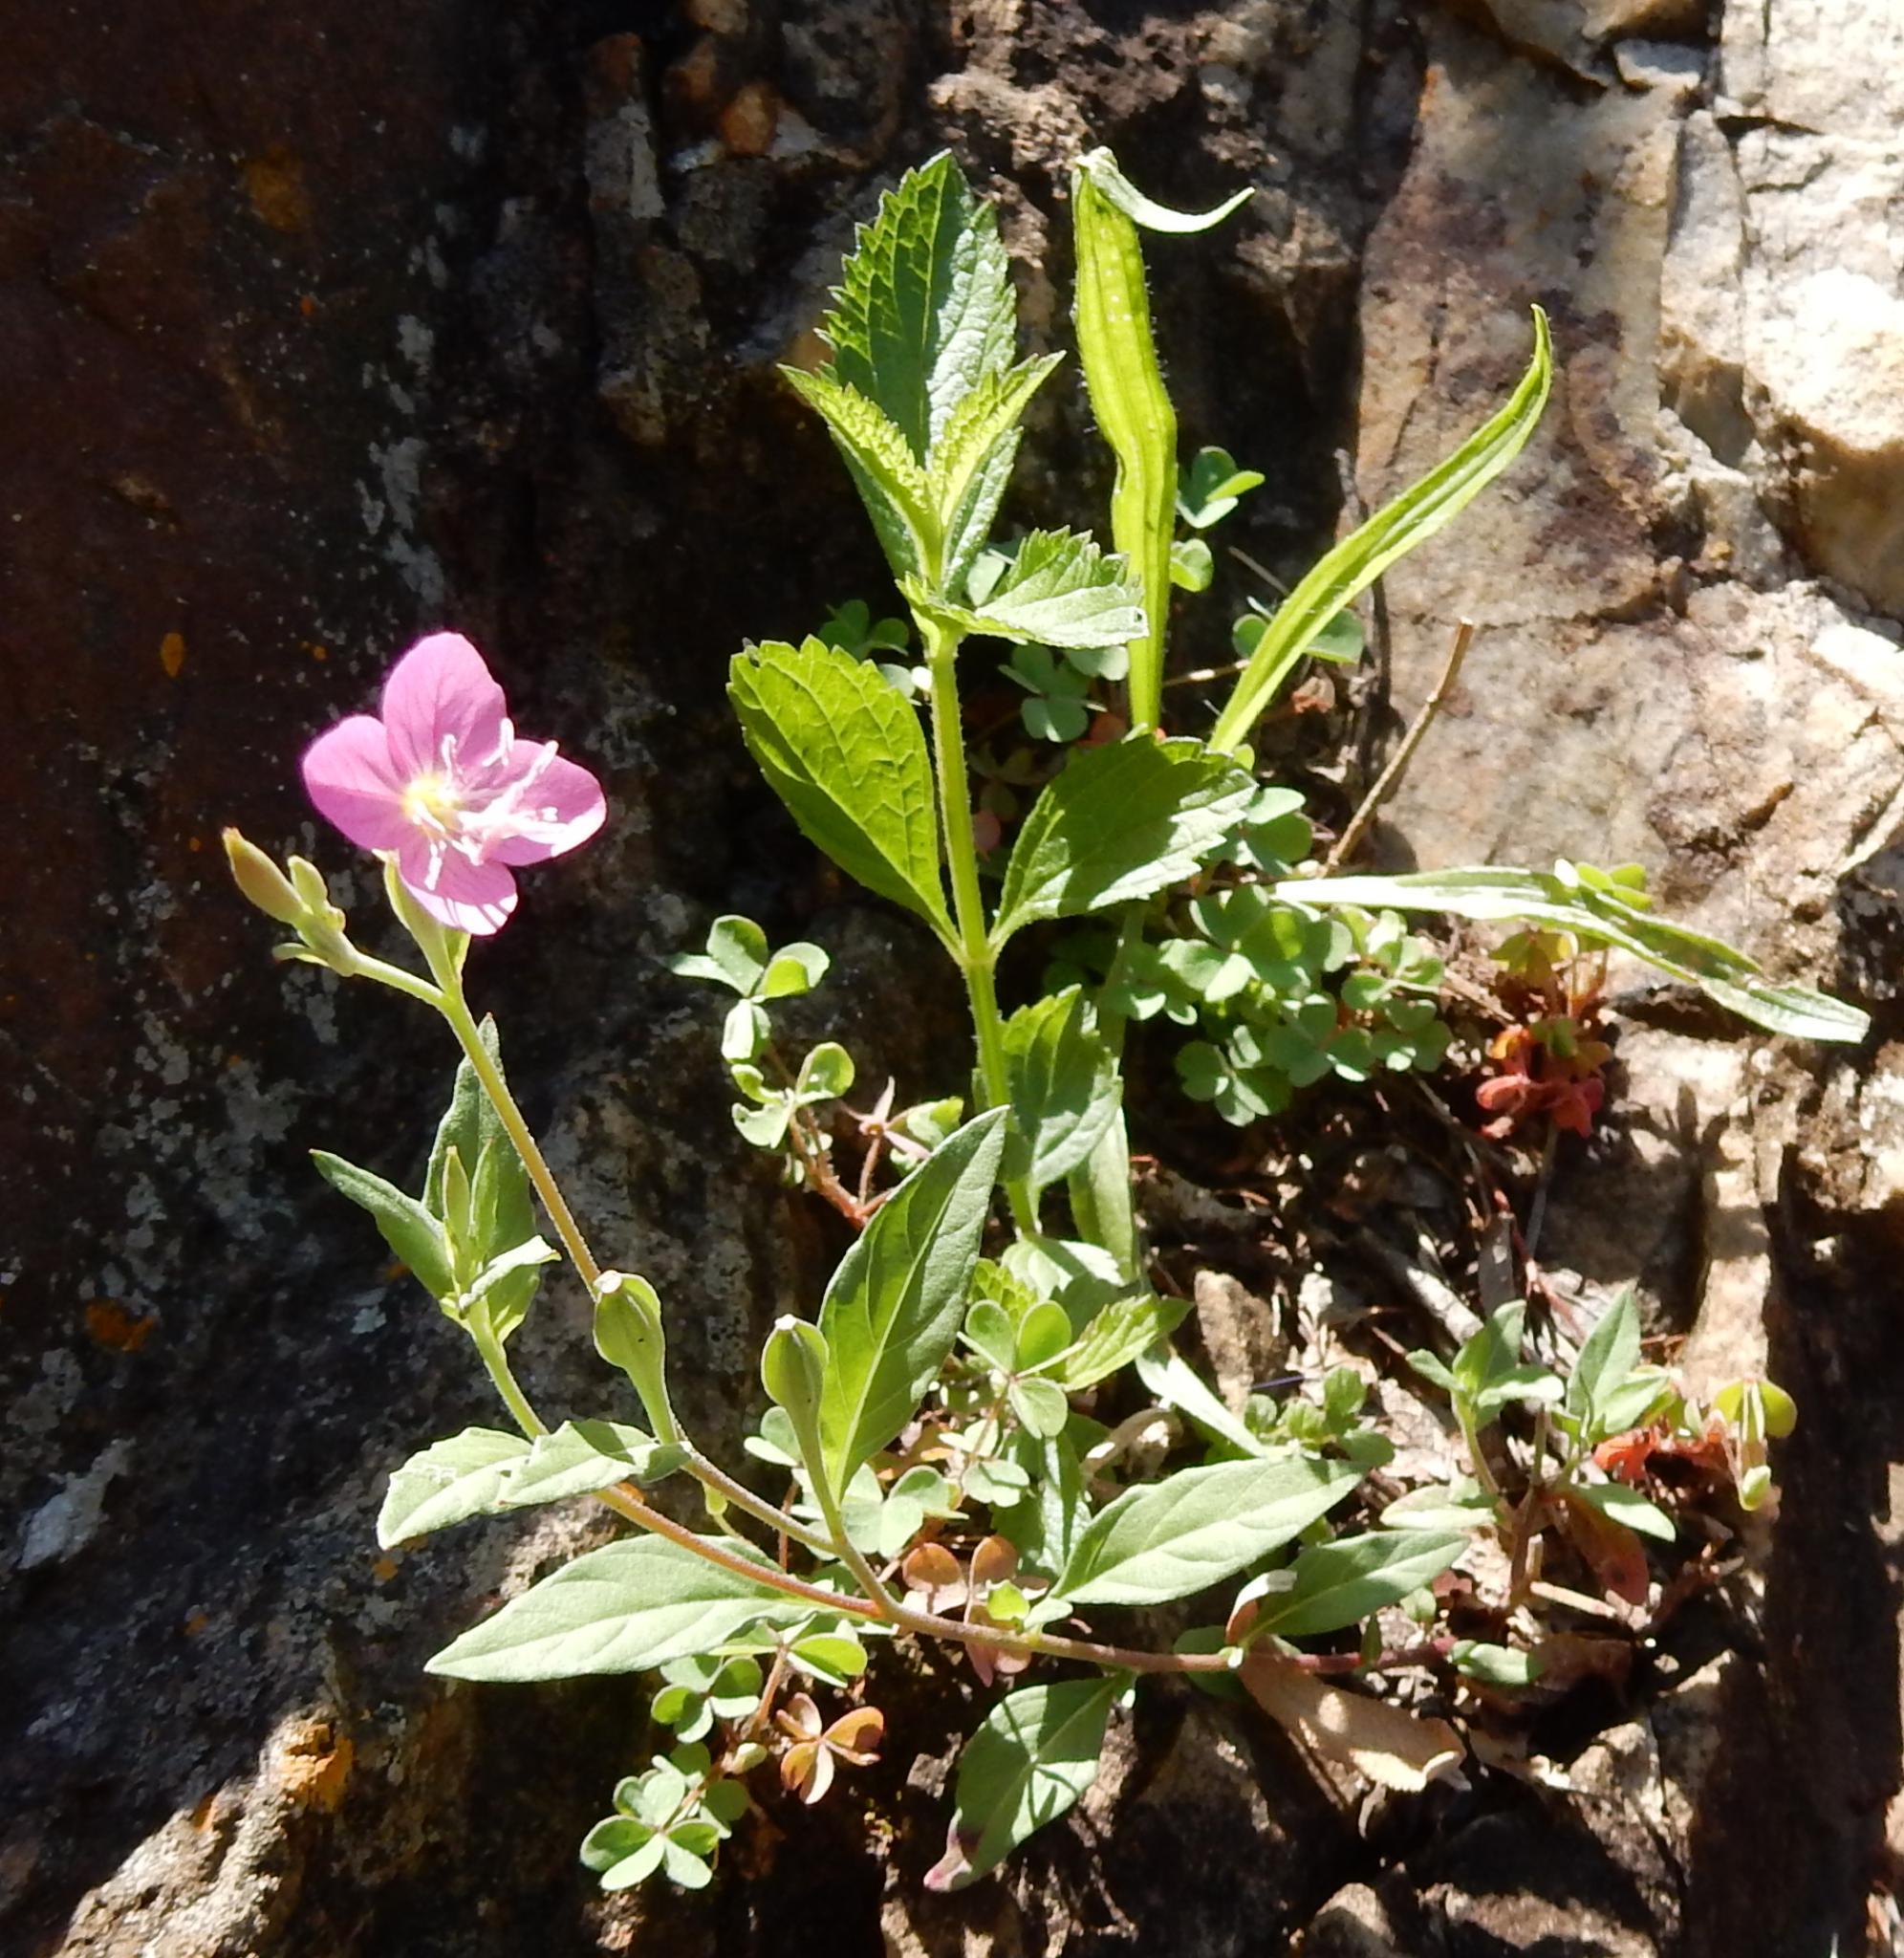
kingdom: Plantae
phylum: Tracheophyta
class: Magnoliopsida
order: Myrtales
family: Onagraceae
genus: Oenothera
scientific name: Oenothera rosea
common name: Rosy evening-primrose
